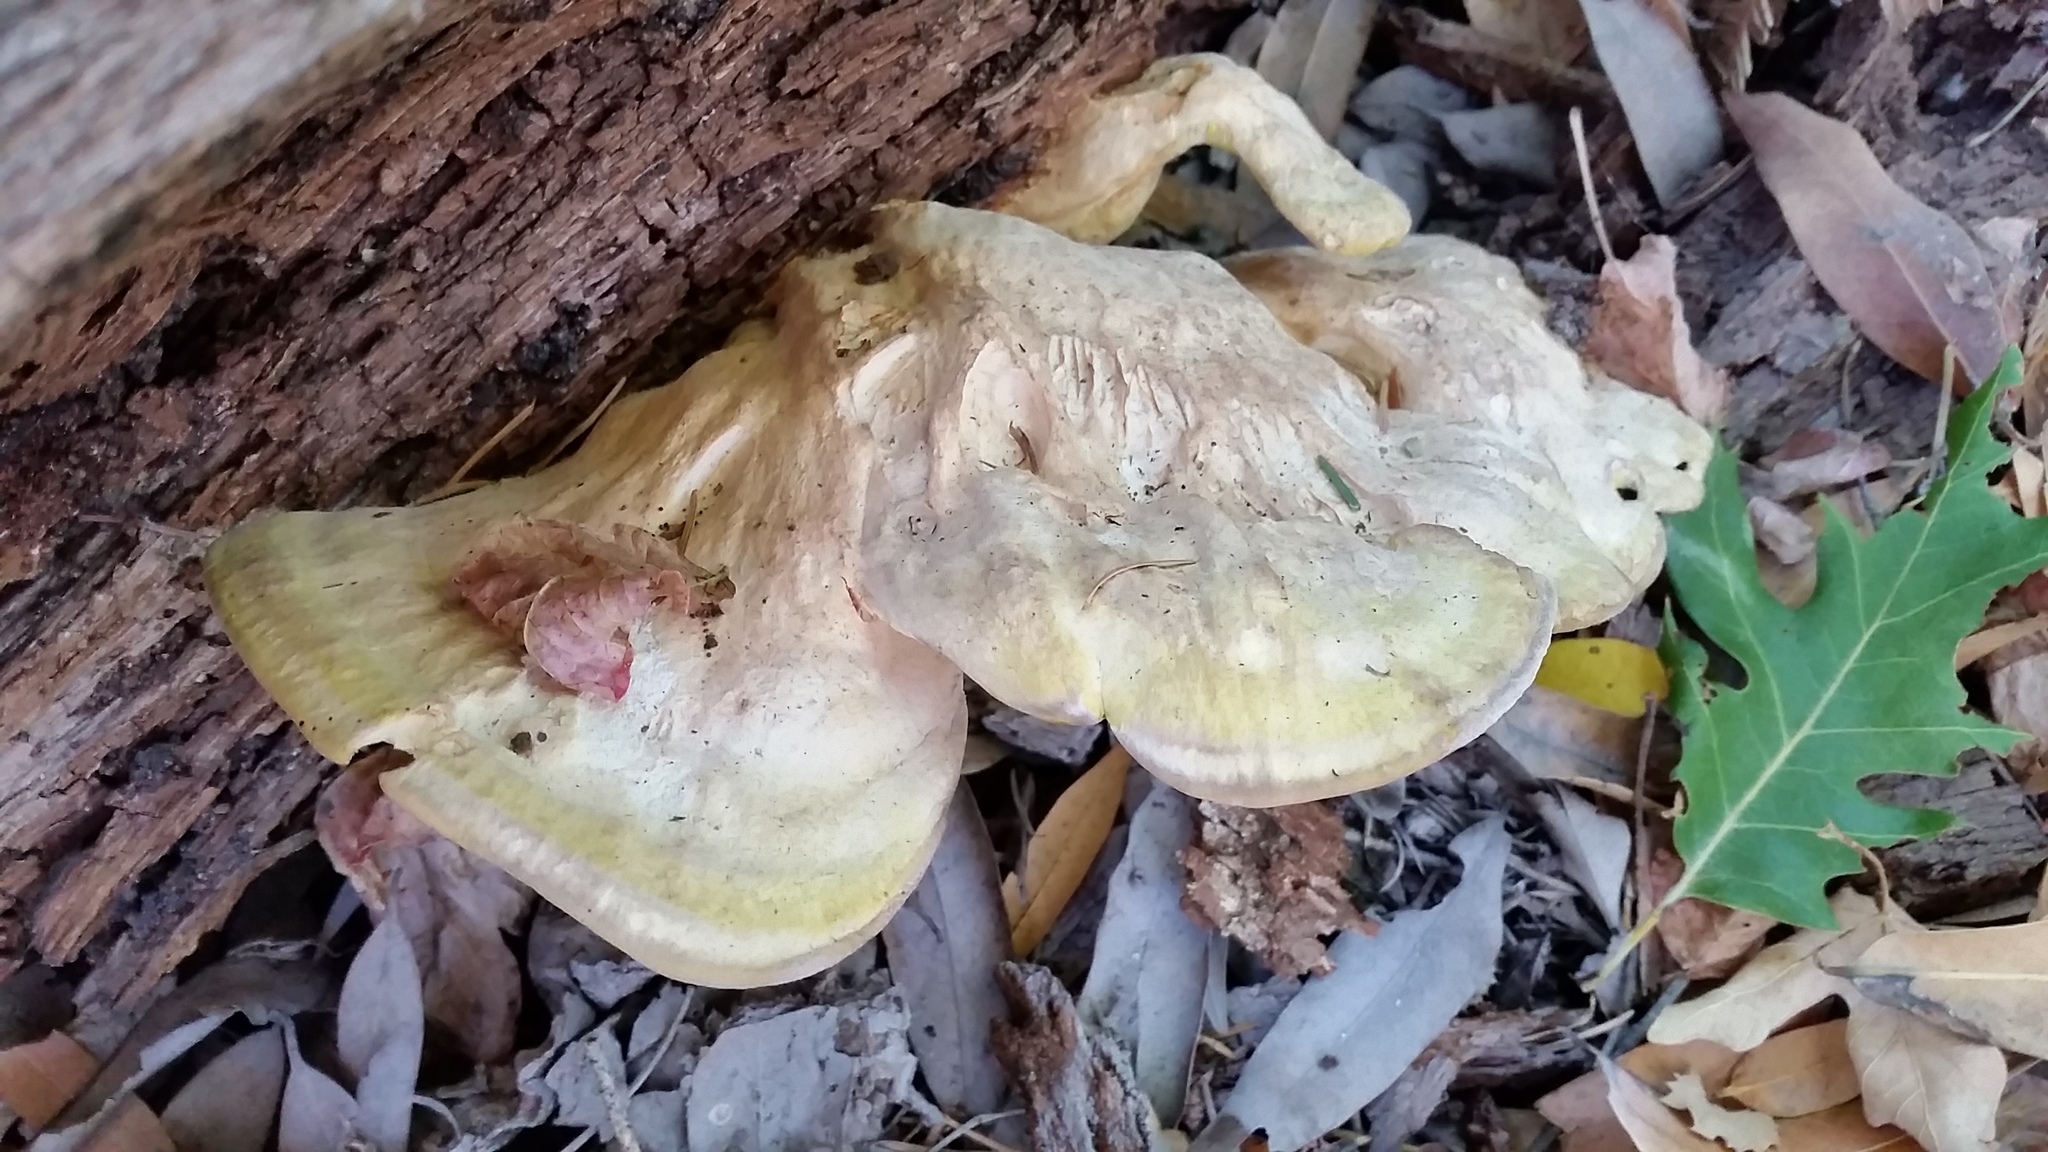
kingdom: Fungi
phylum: Basidiomycota
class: Agaricomycetes
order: Polyporales
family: Laetiporaceae
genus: Laetiporus
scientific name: Laetiporus gilbertsonii
